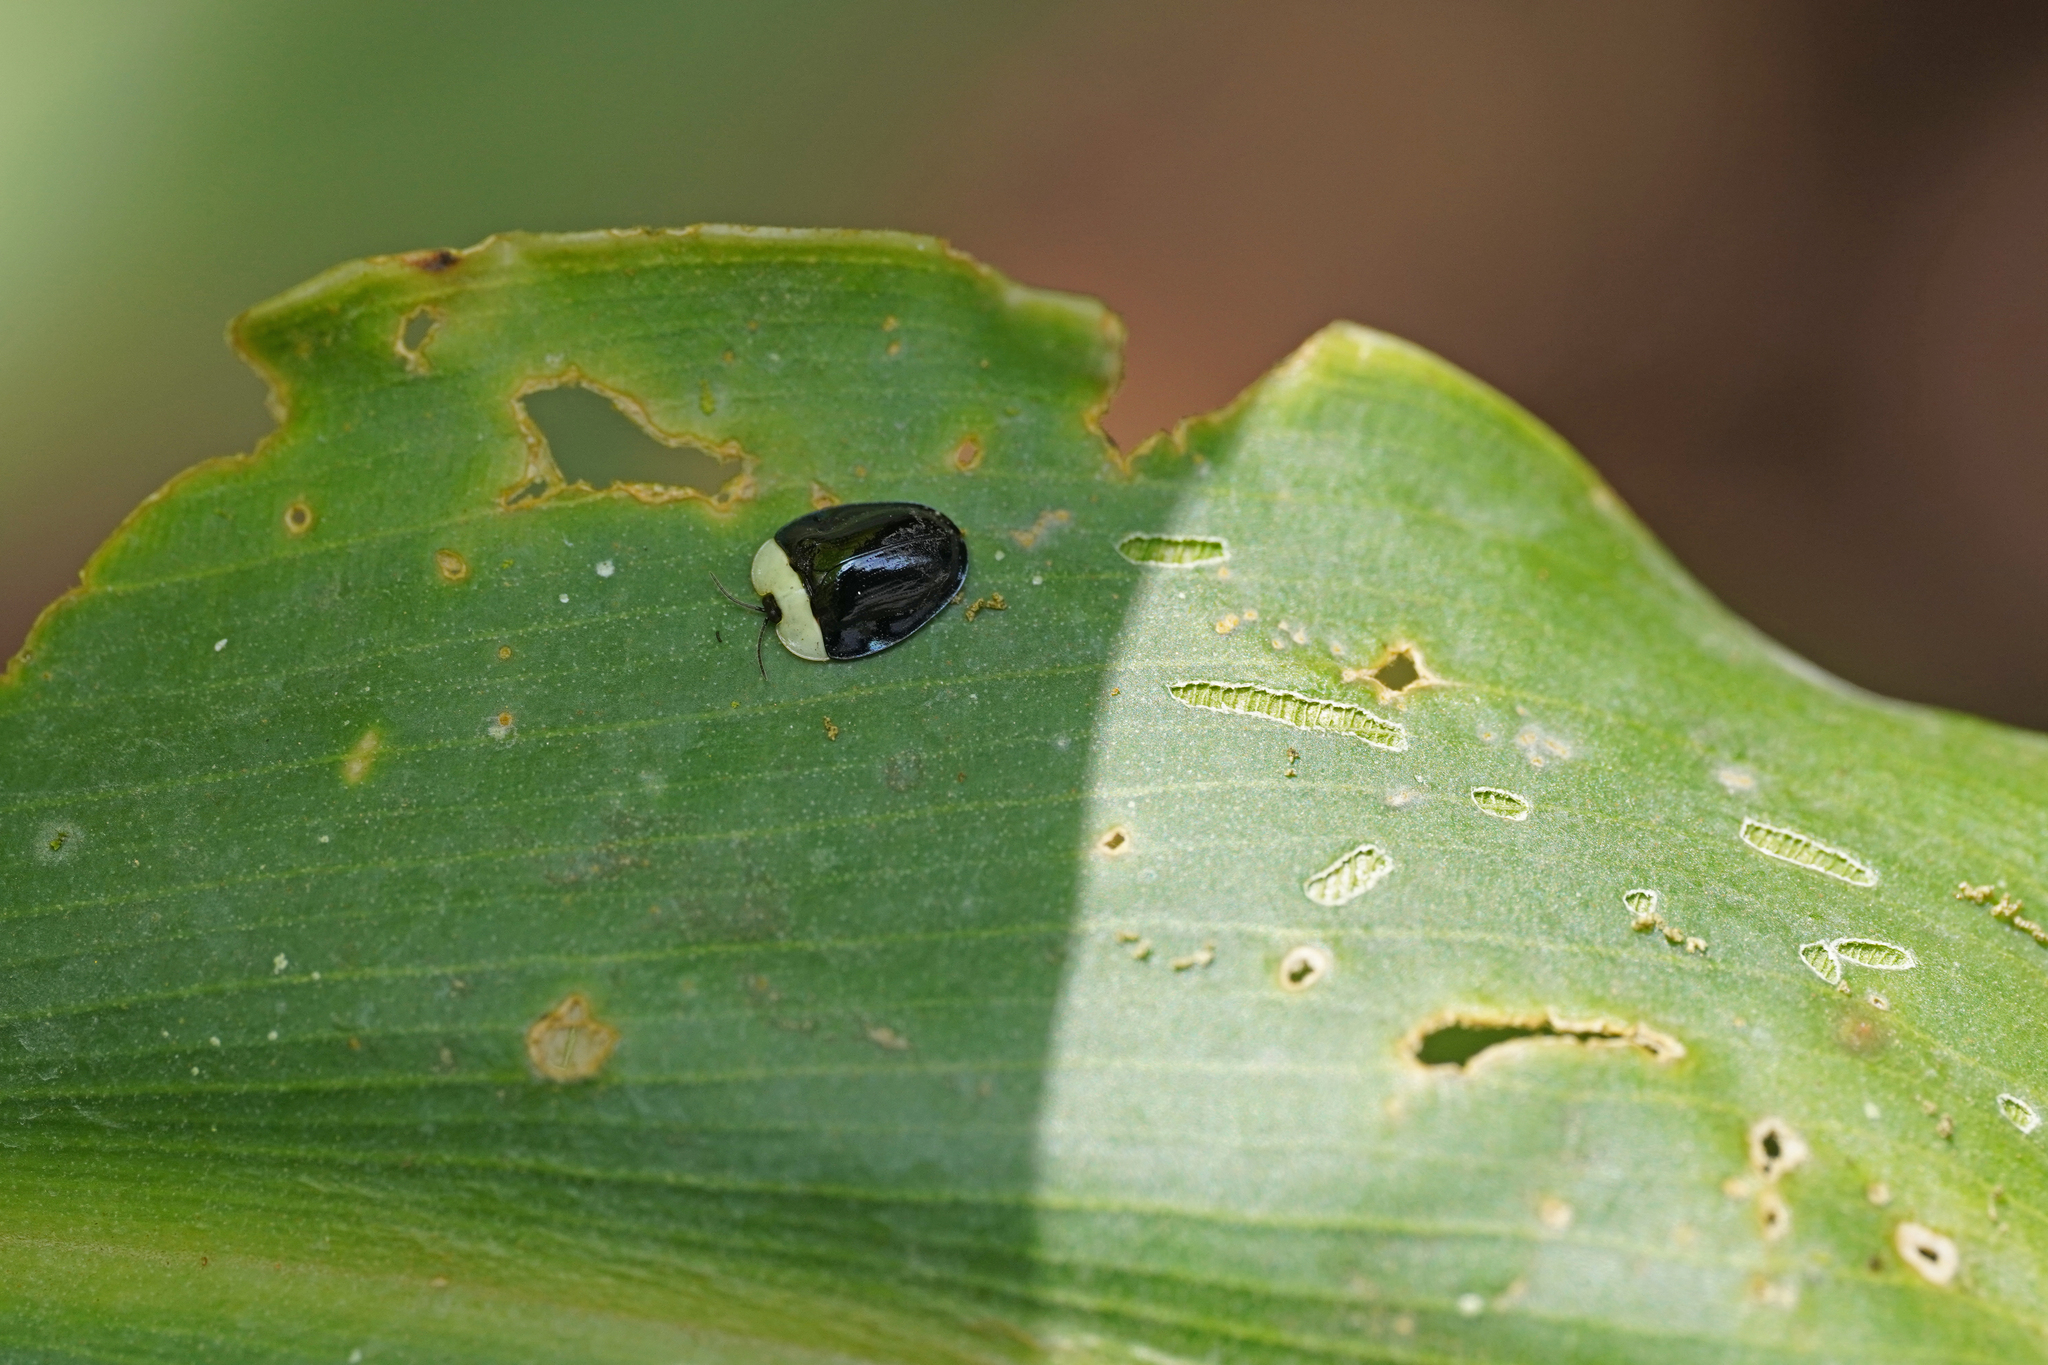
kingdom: Animalia
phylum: Arthropoda
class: Insecta
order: Coleoptera
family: Chrysomelidae
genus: Imatidium
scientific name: Imatidium thoracicum
